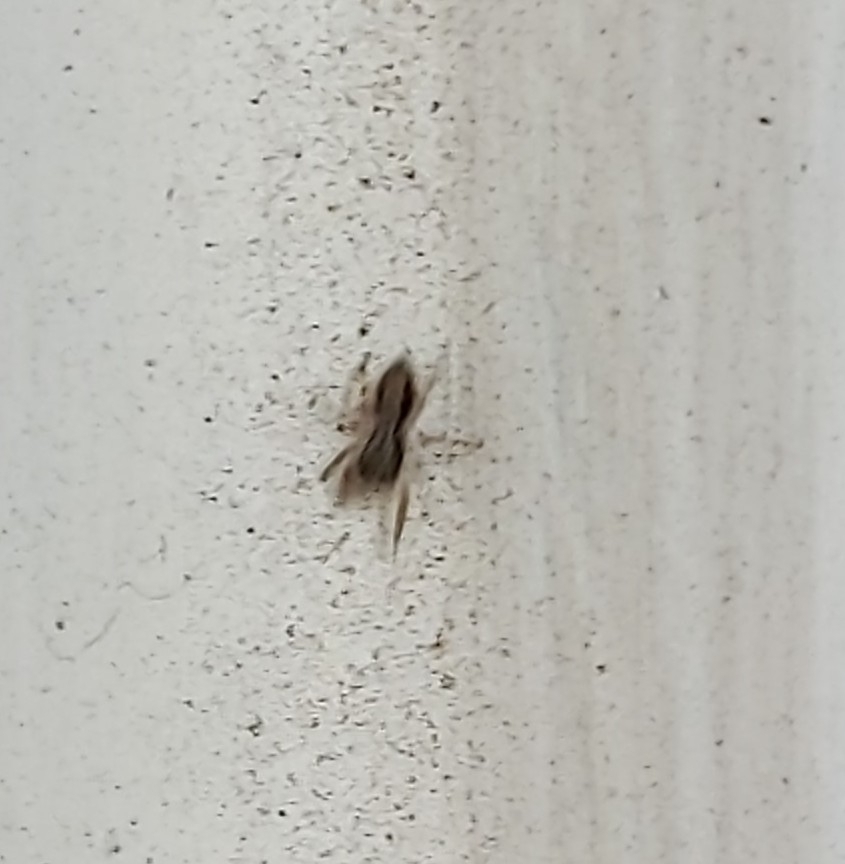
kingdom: Animalia
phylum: Arthropoda
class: Arachnida
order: Araneae
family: Salticidae
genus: Platycryptus
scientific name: Platycryptus californicus
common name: Jumping spiders
